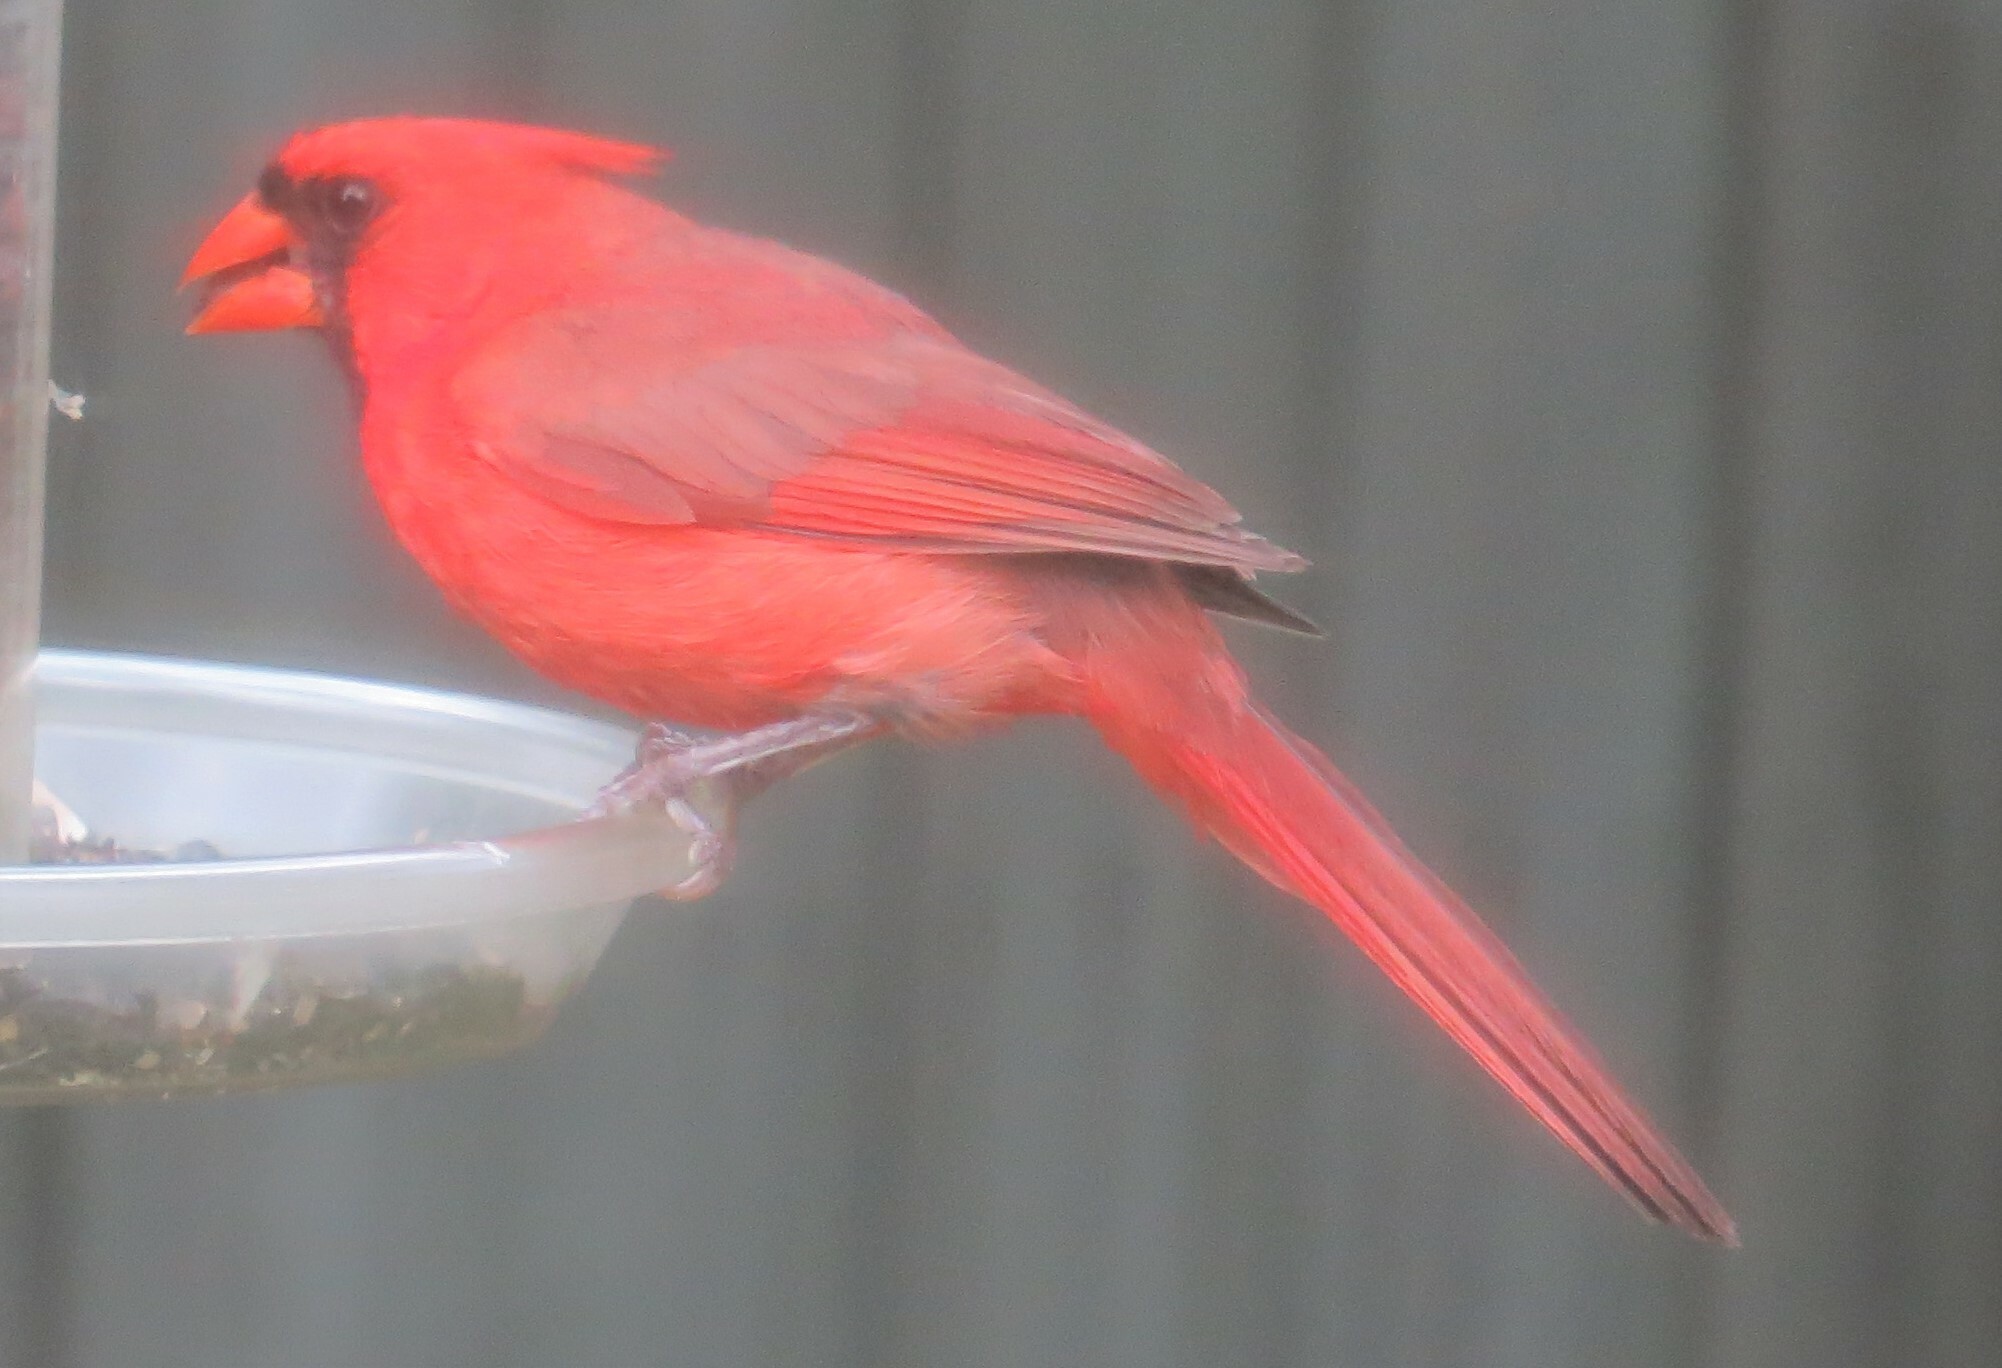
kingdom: Animalia
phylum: Chordata
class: Aves
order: Passeriformes
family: Cardinalidae
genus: Cardinalis
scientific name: Cardinalis cardinalis
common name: Northern cardinal
